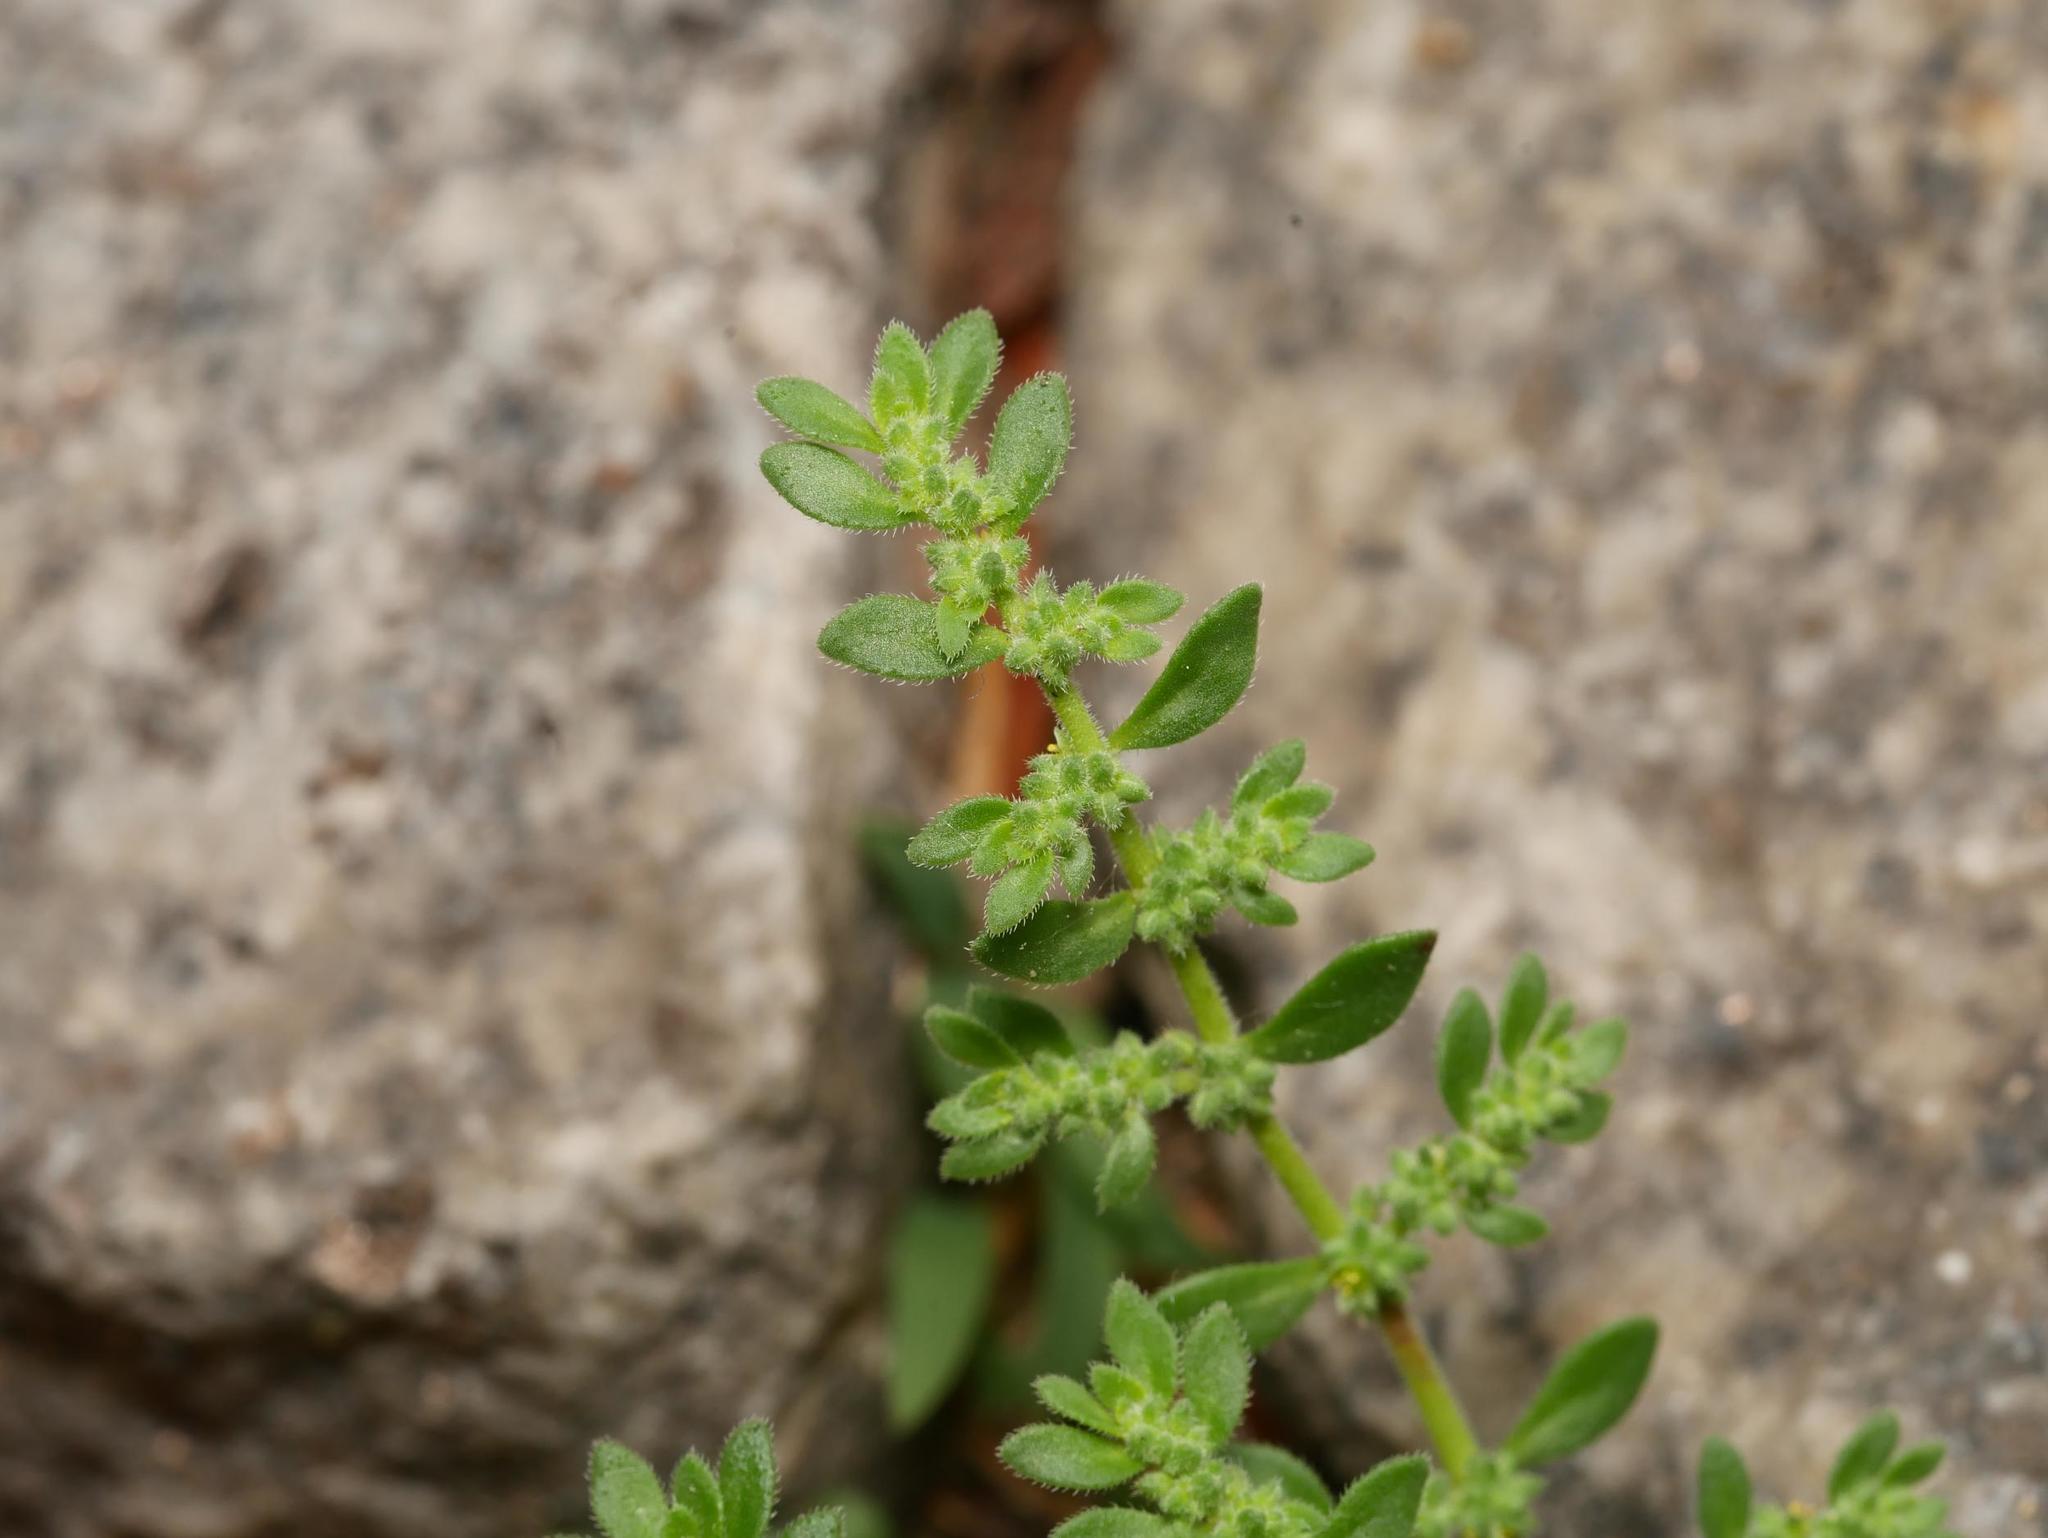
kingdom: Plantae
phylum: Tracheophyta
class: Magnoliopsida
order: Caryophyllales
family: Caryophyllaceae
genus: Herniaria
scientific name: Herniaria hirsuta
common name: Hairy rupturewort
